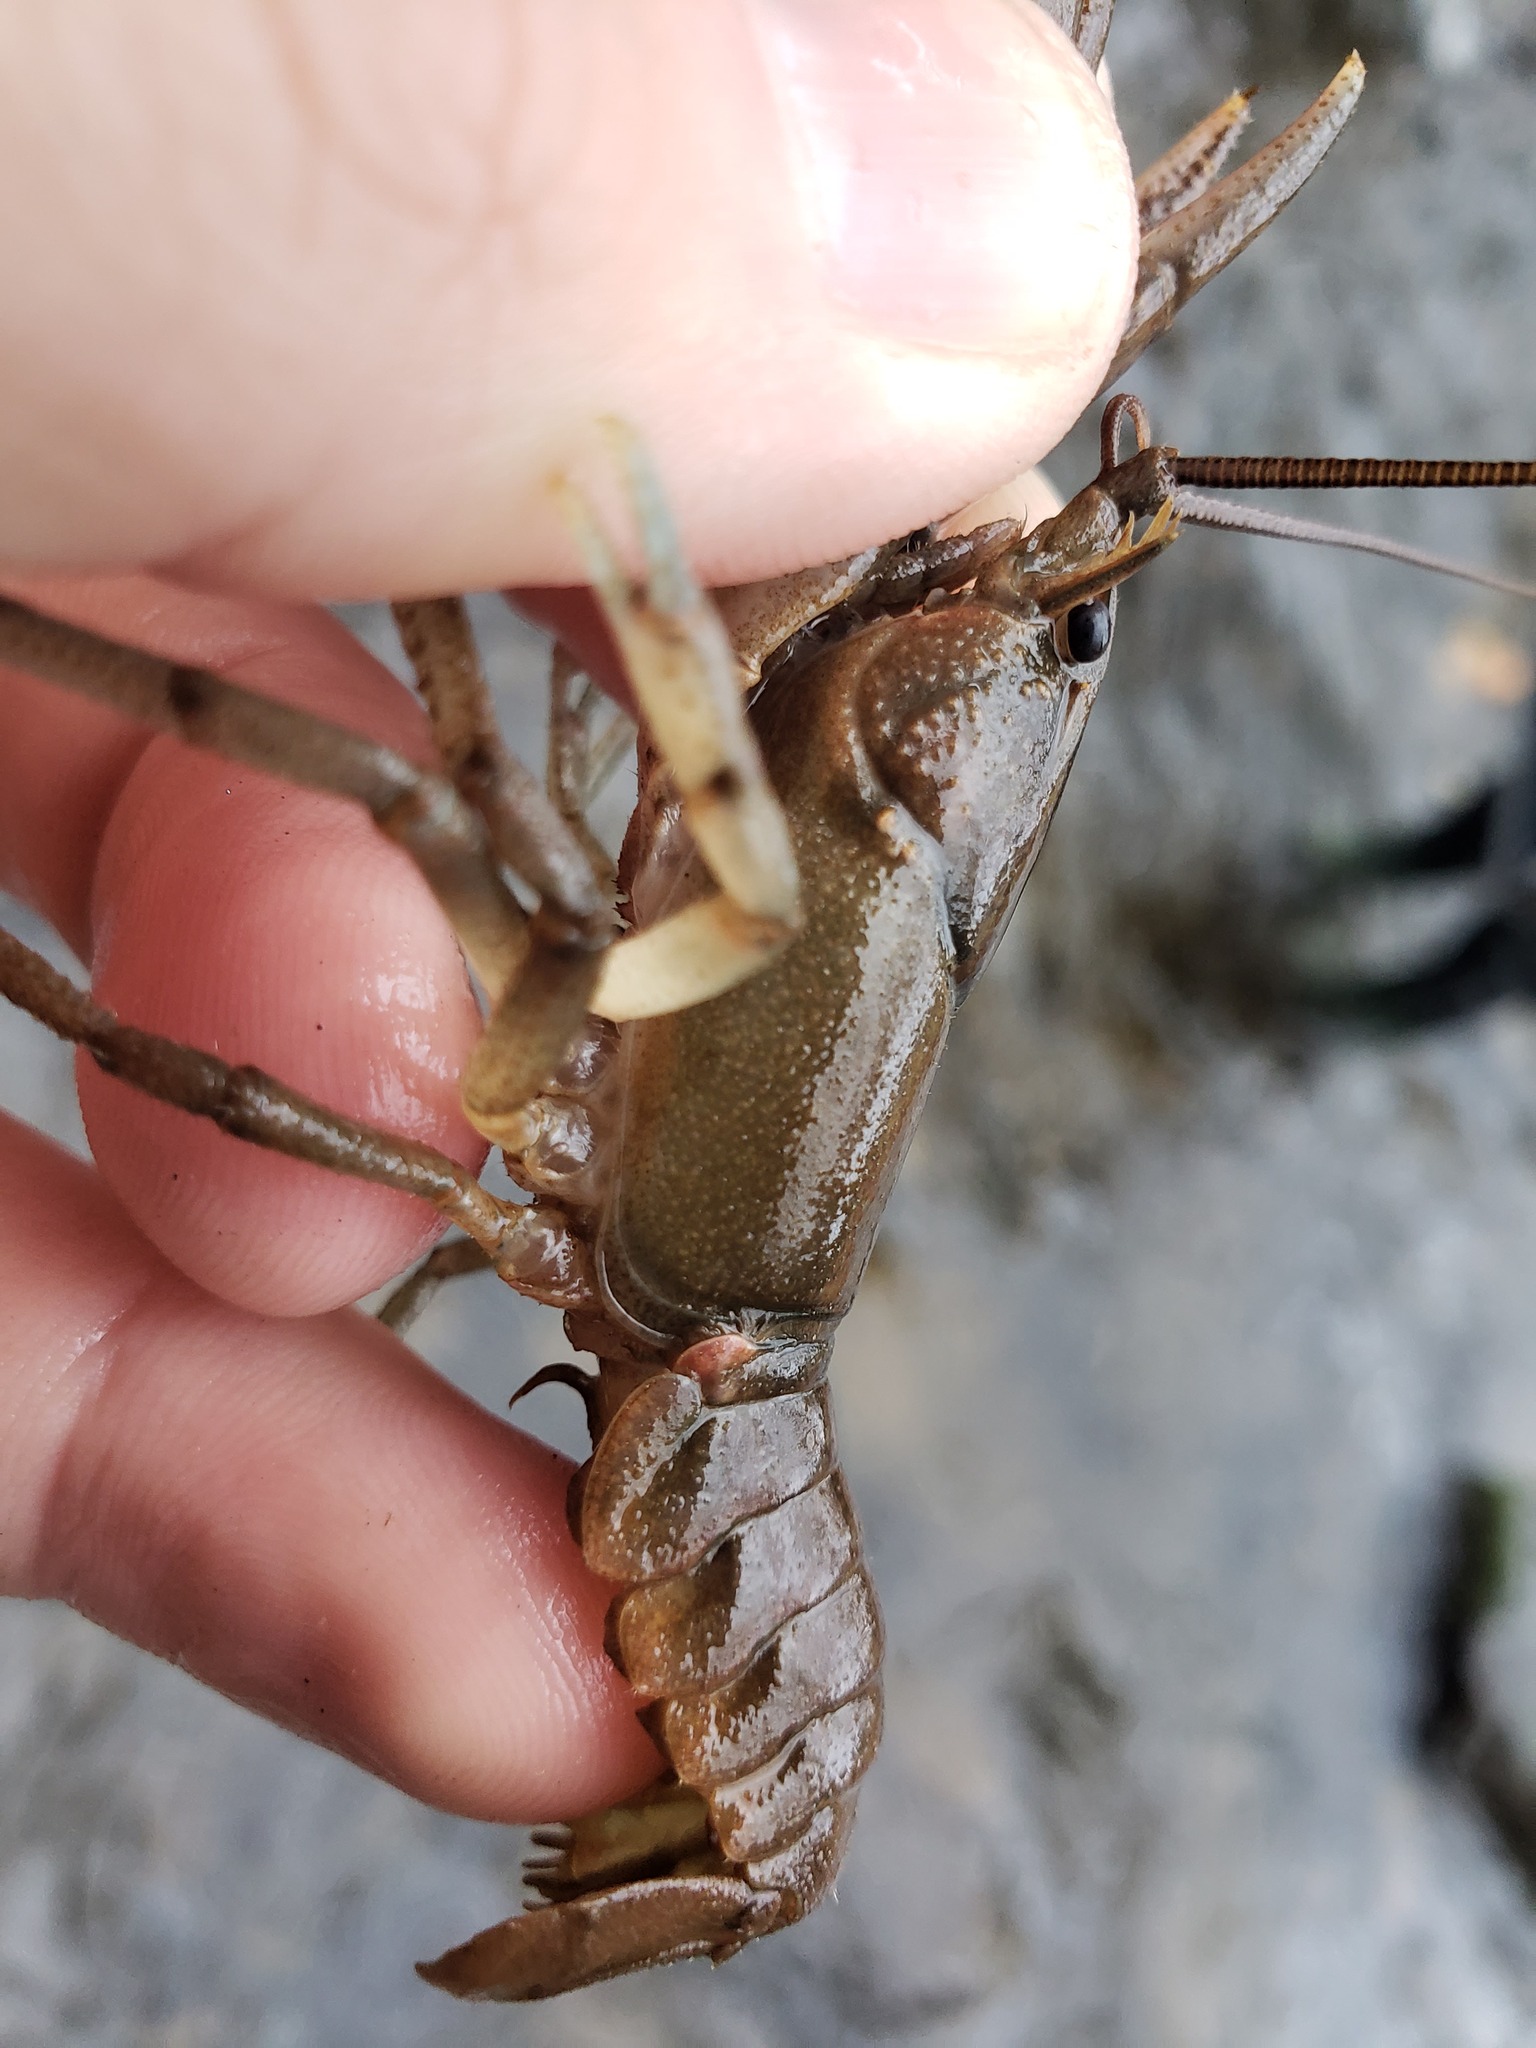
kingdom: Animalia
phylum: Arthropoda
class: Malacostraca
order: Decapoda
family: Cambaridae
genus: Cambarus
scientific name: Cambarus robustus
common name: Big water crayfish
